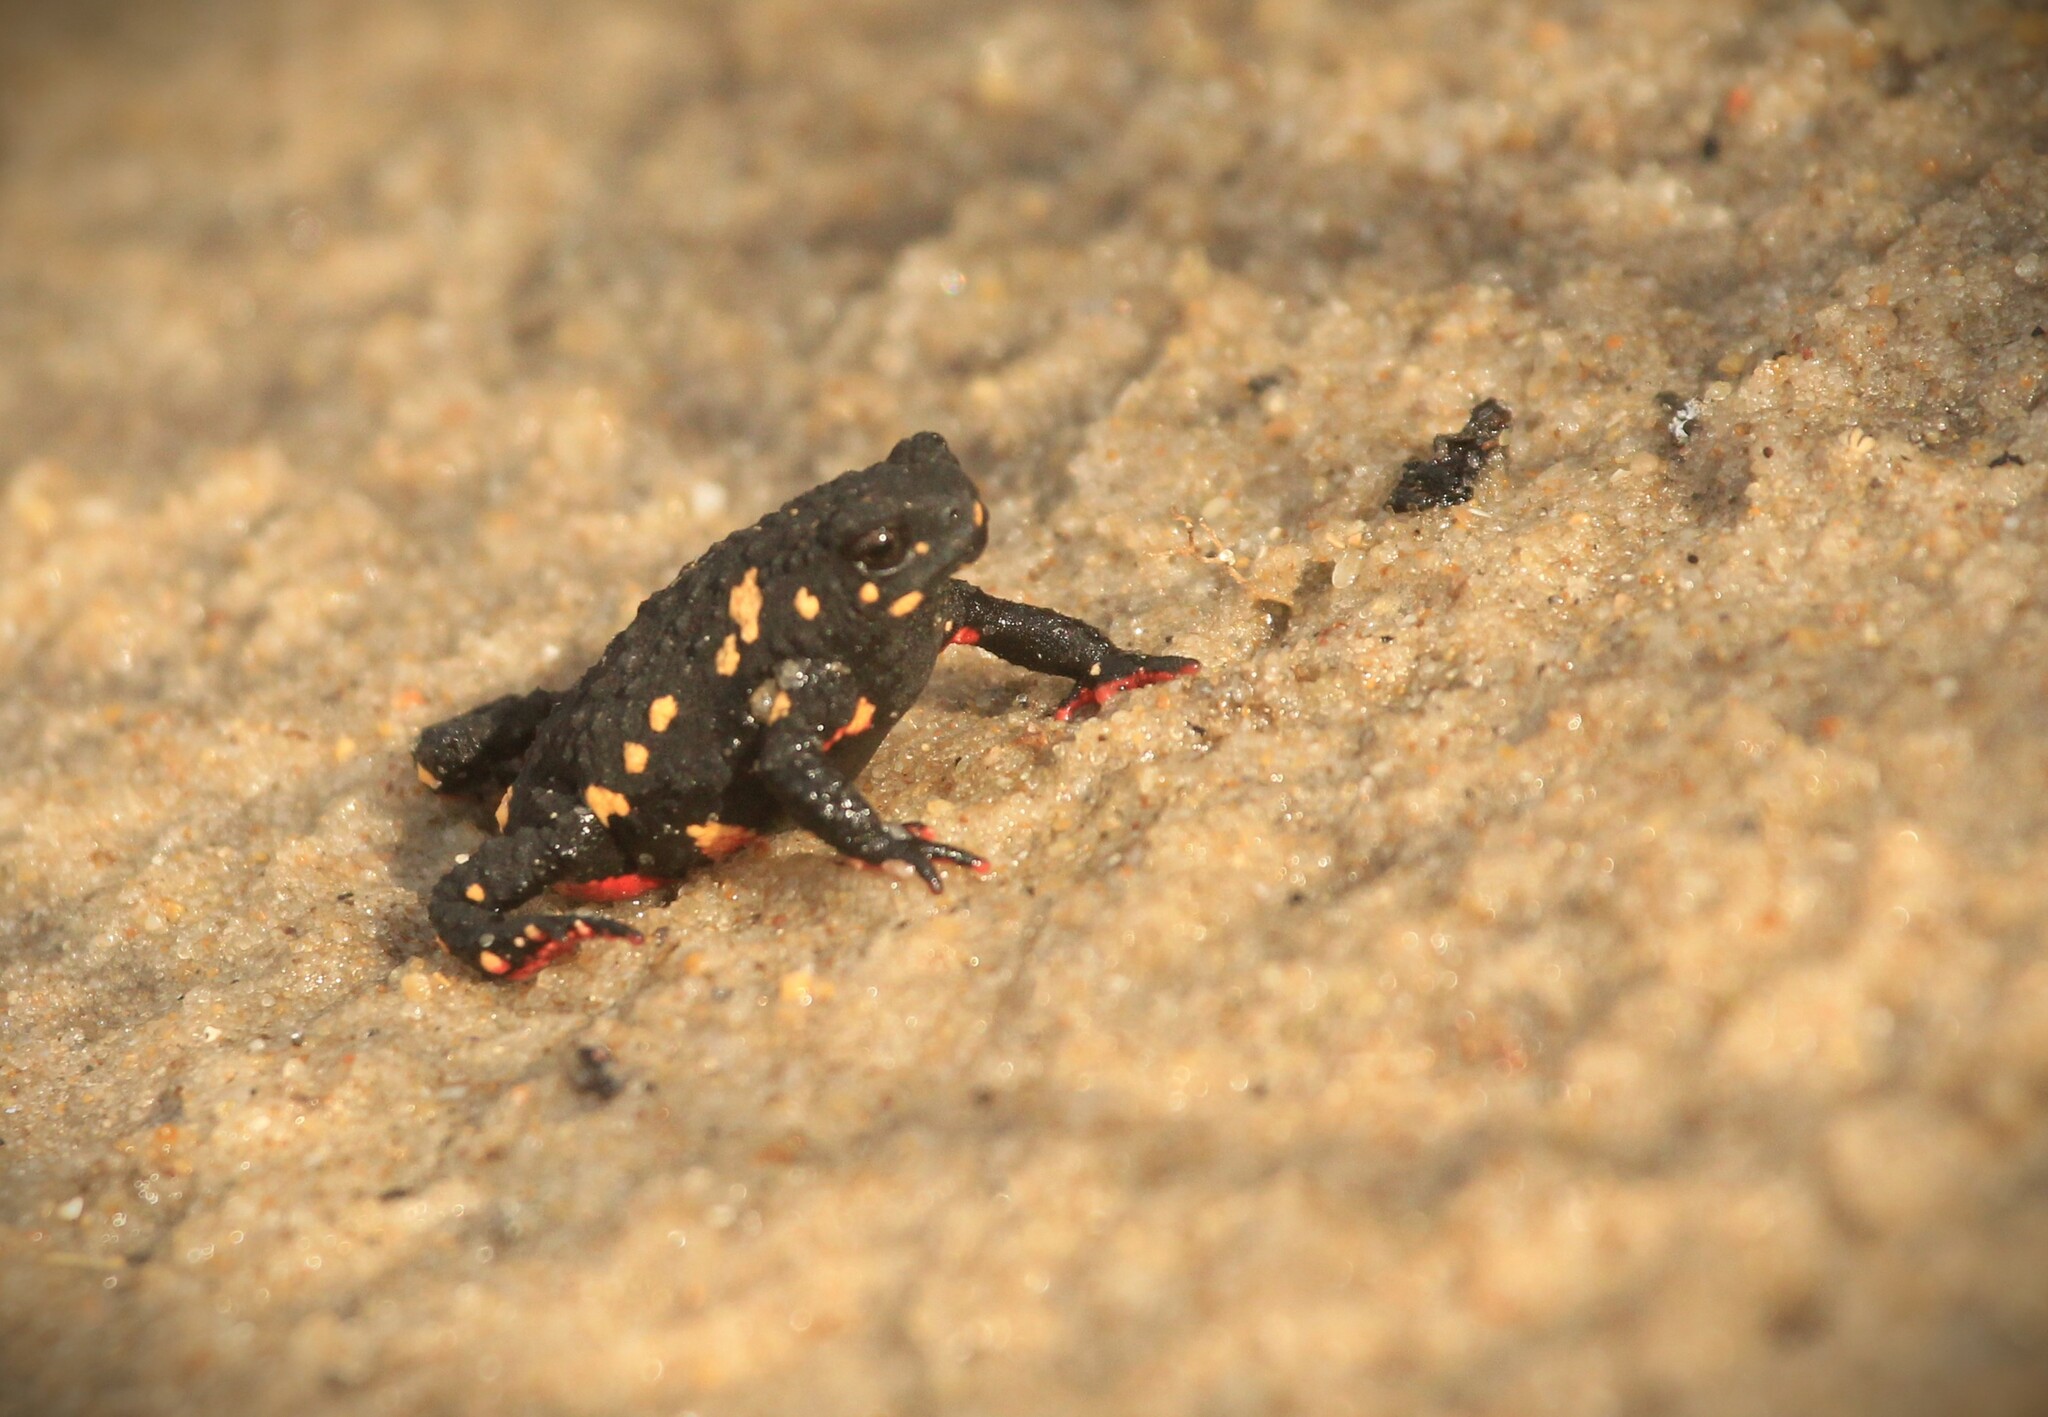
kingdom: Animalia
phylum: Chordata
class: Amphibia
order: Anura
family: Bufonidae
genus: Melanophryniscus
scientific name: Melanophryniscus montevidensis
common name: Montevideo redbelly toad
